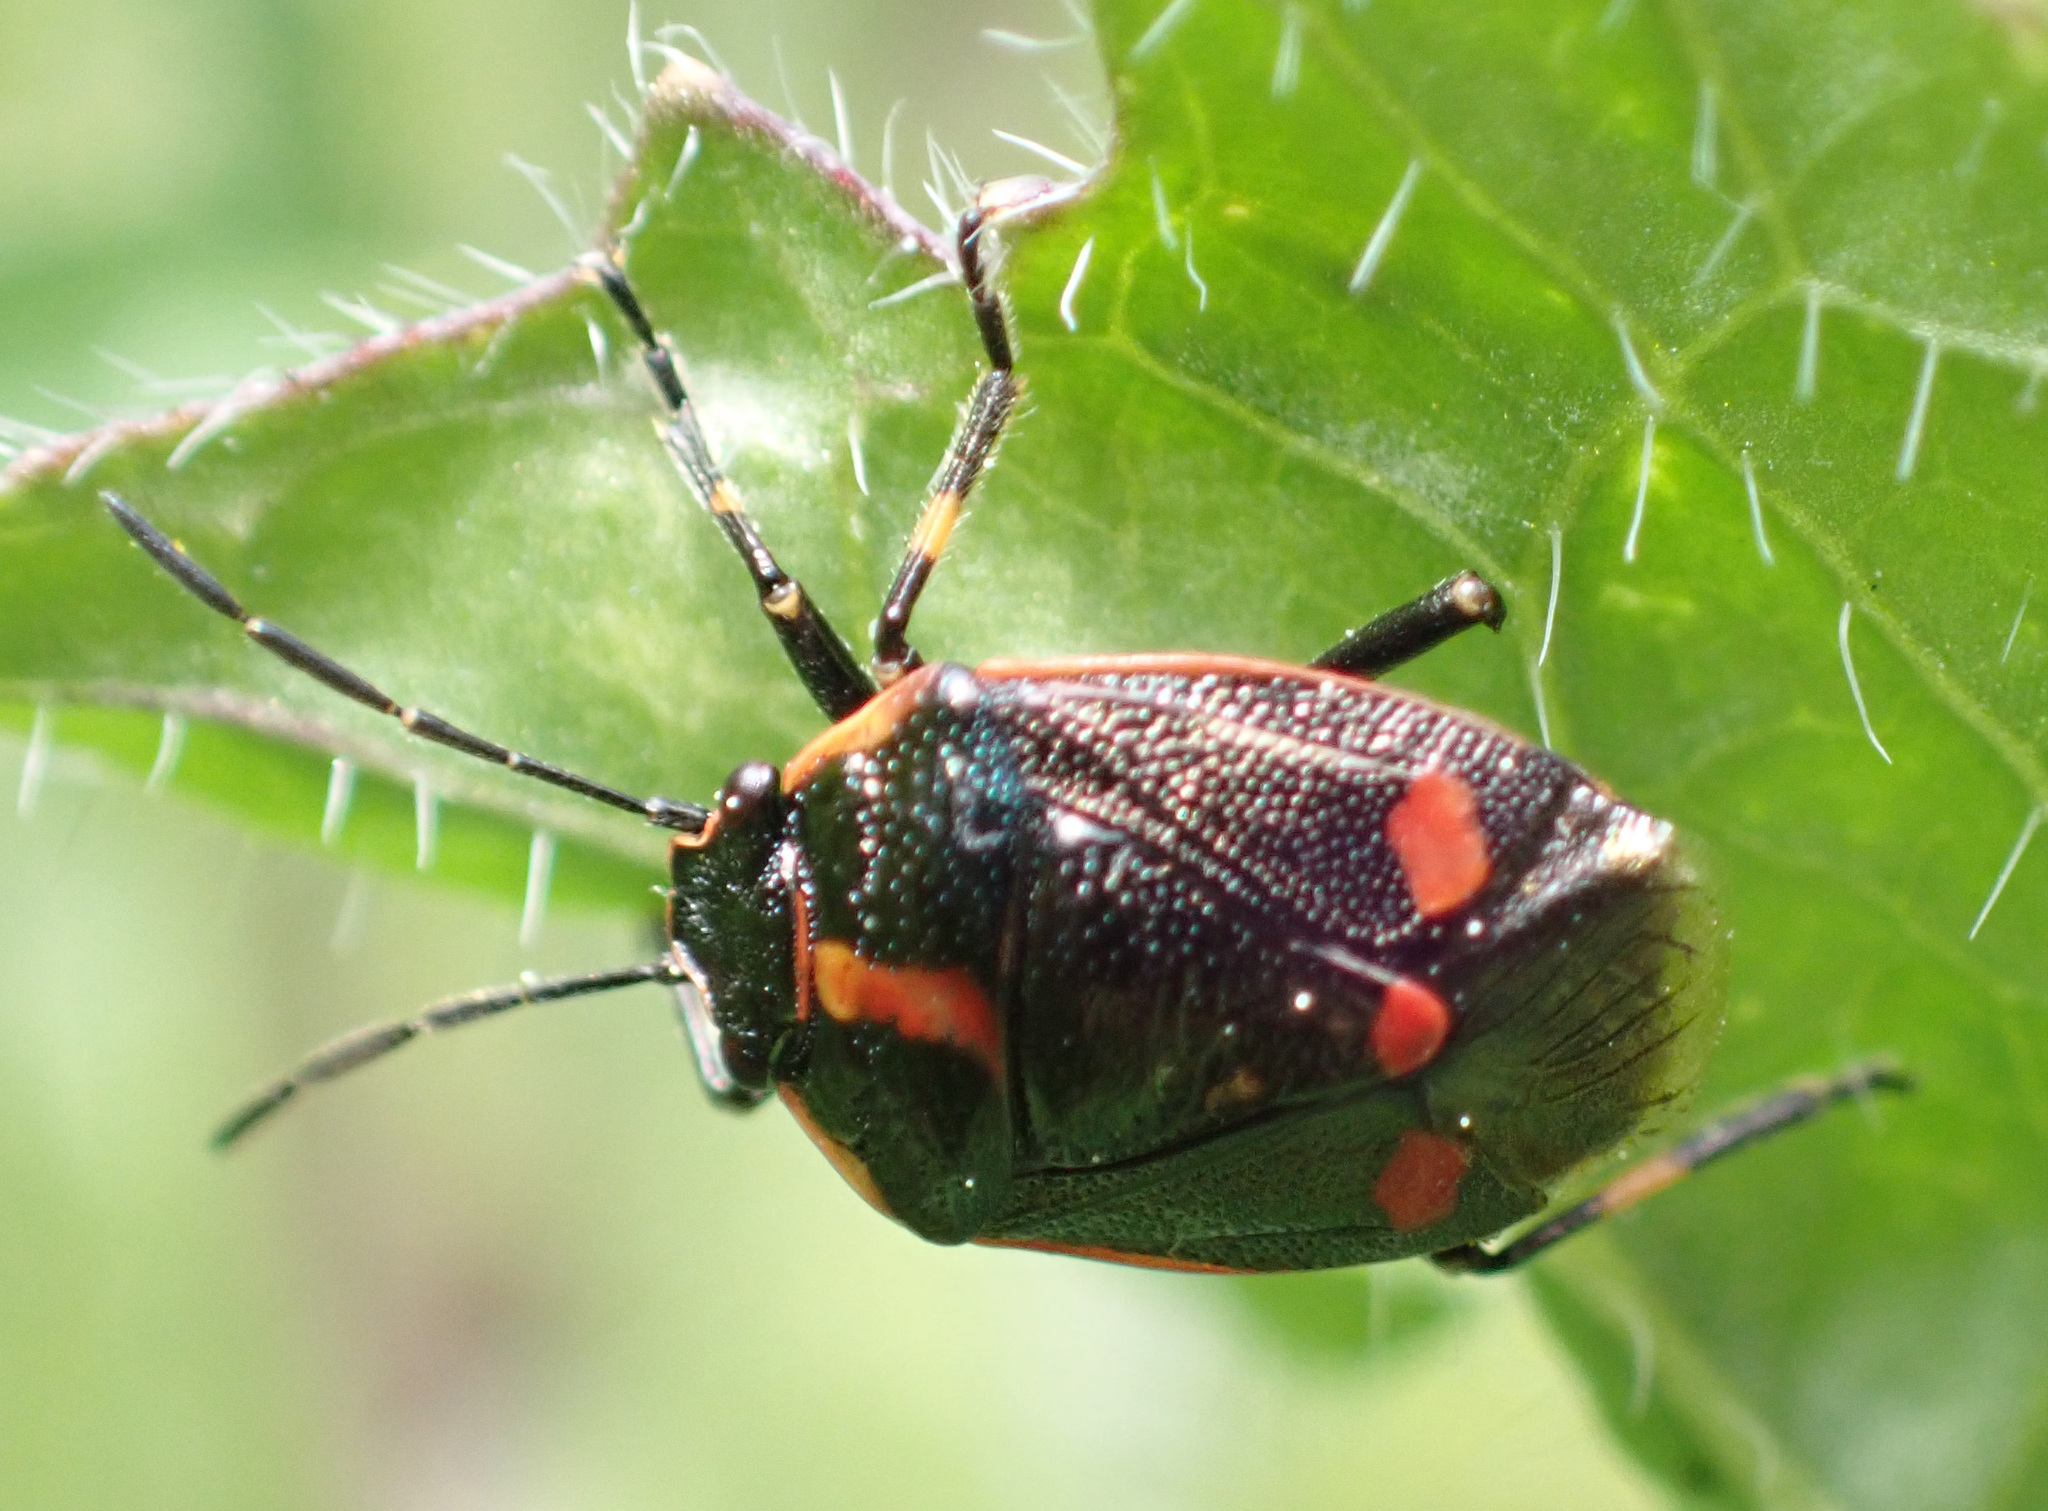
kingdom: Animalia
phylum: Arthropoda
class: Insecta
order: Hemiptera
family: Pentatomidae
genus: Eurydema
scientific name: Eurydema oleracea
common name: Cabbage bug
